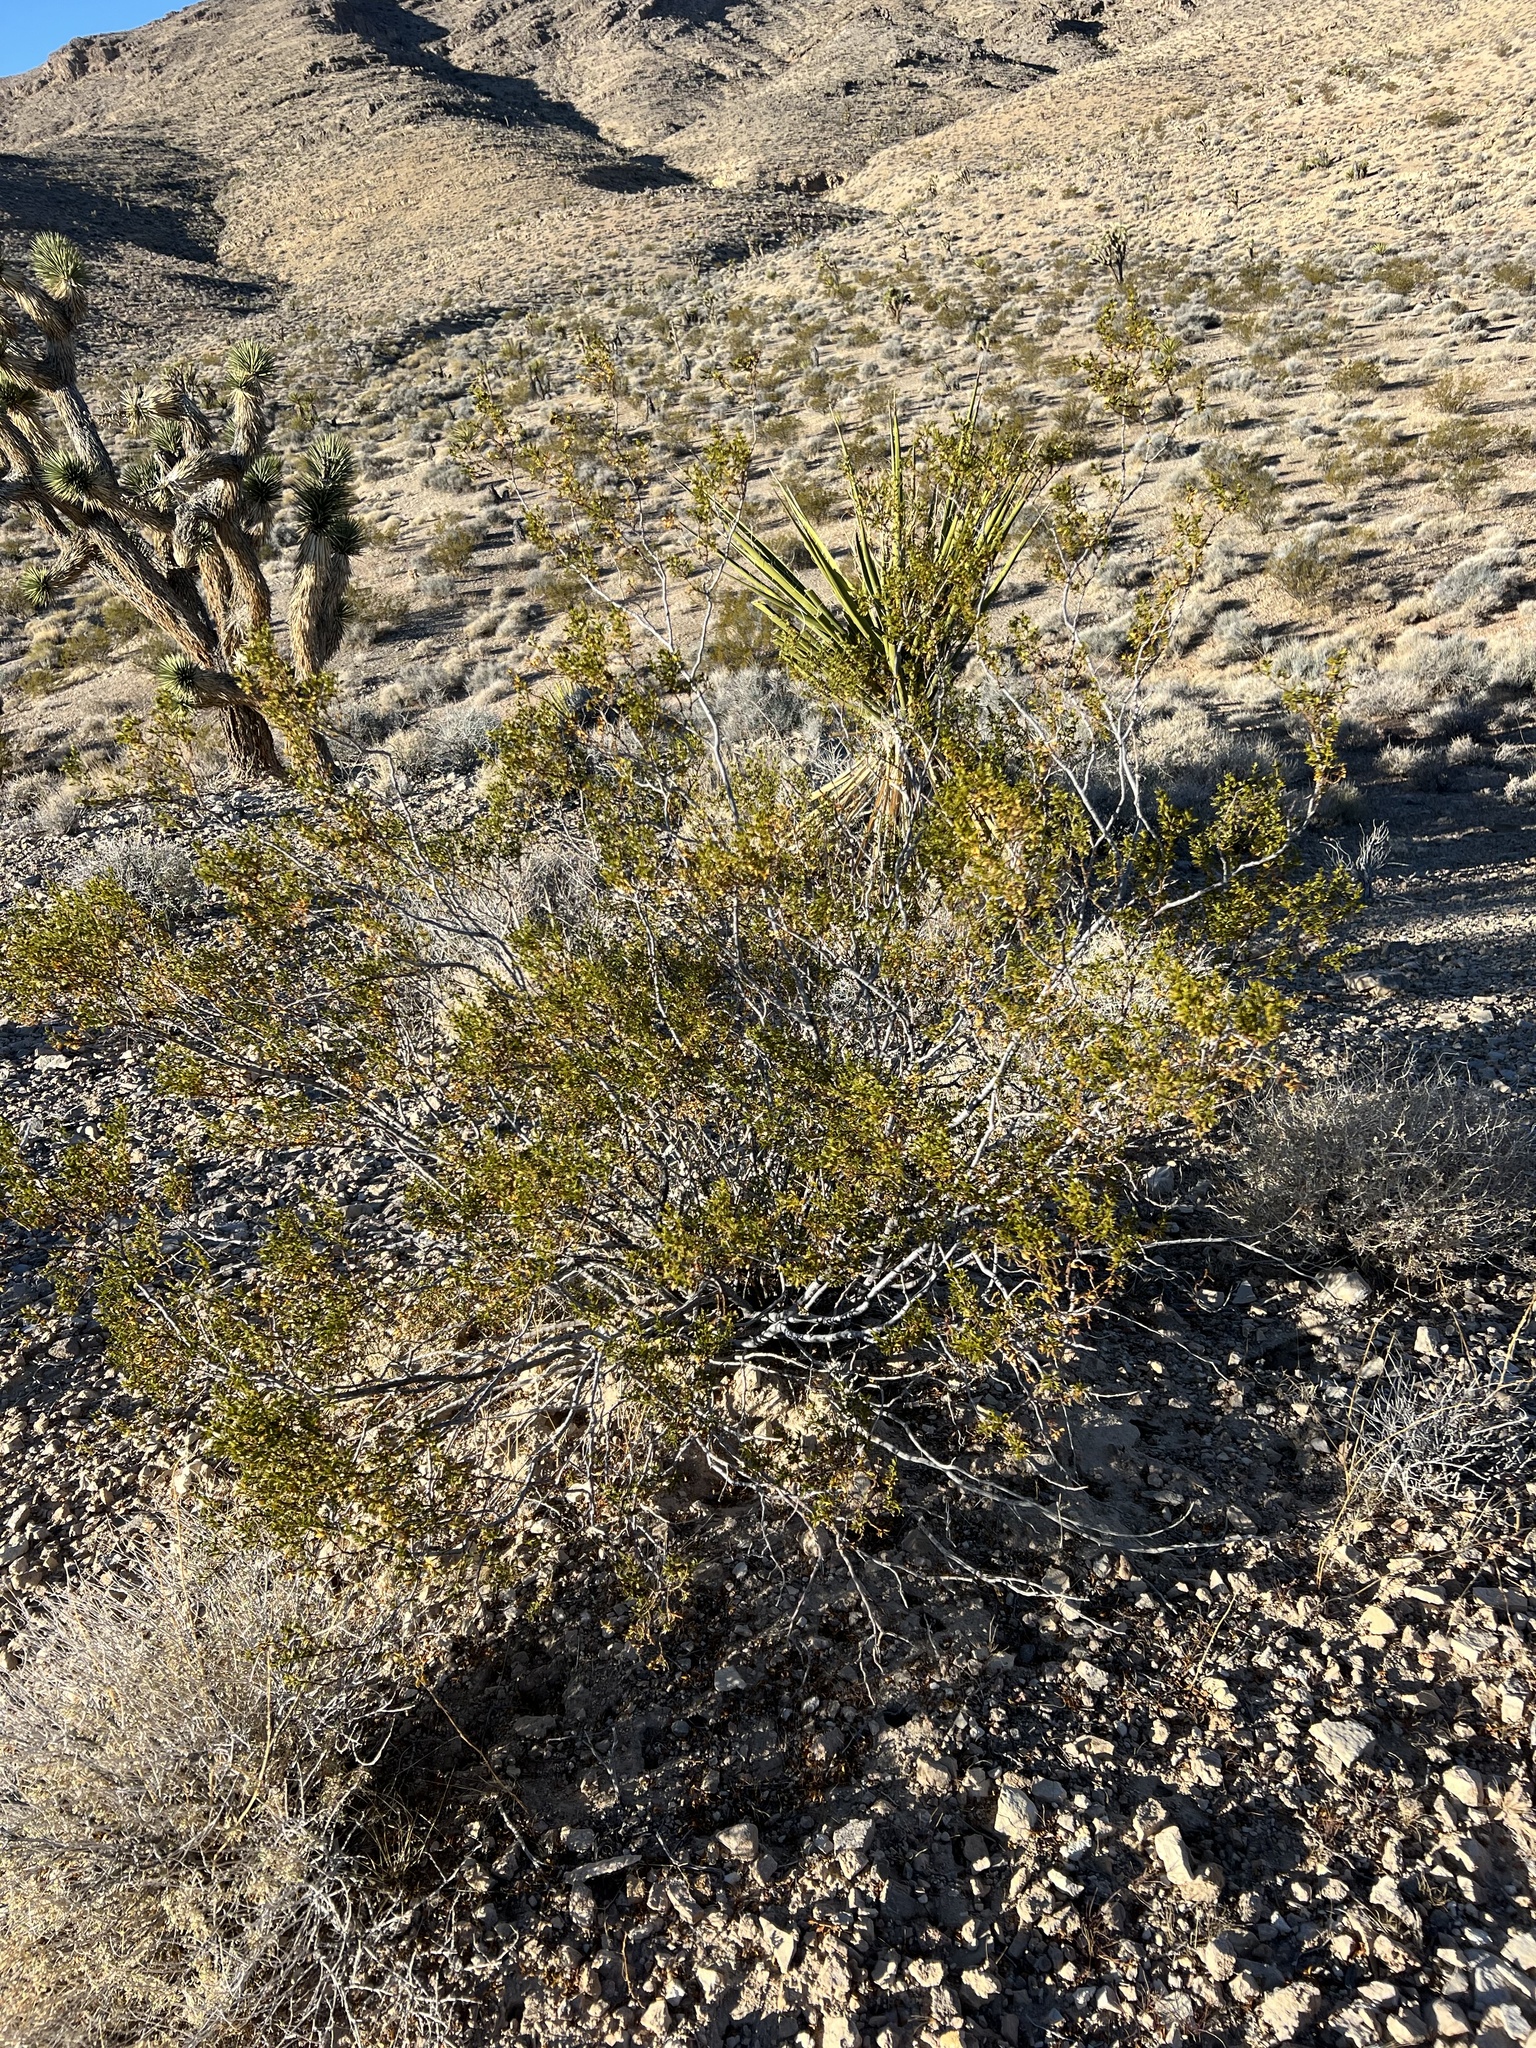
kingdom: Plantae
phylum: Tracheophyta
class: Magnoliopsida
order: Zygophyllales
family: Zygophyllaceae
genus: Larrea
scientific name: Larrea tridentata
